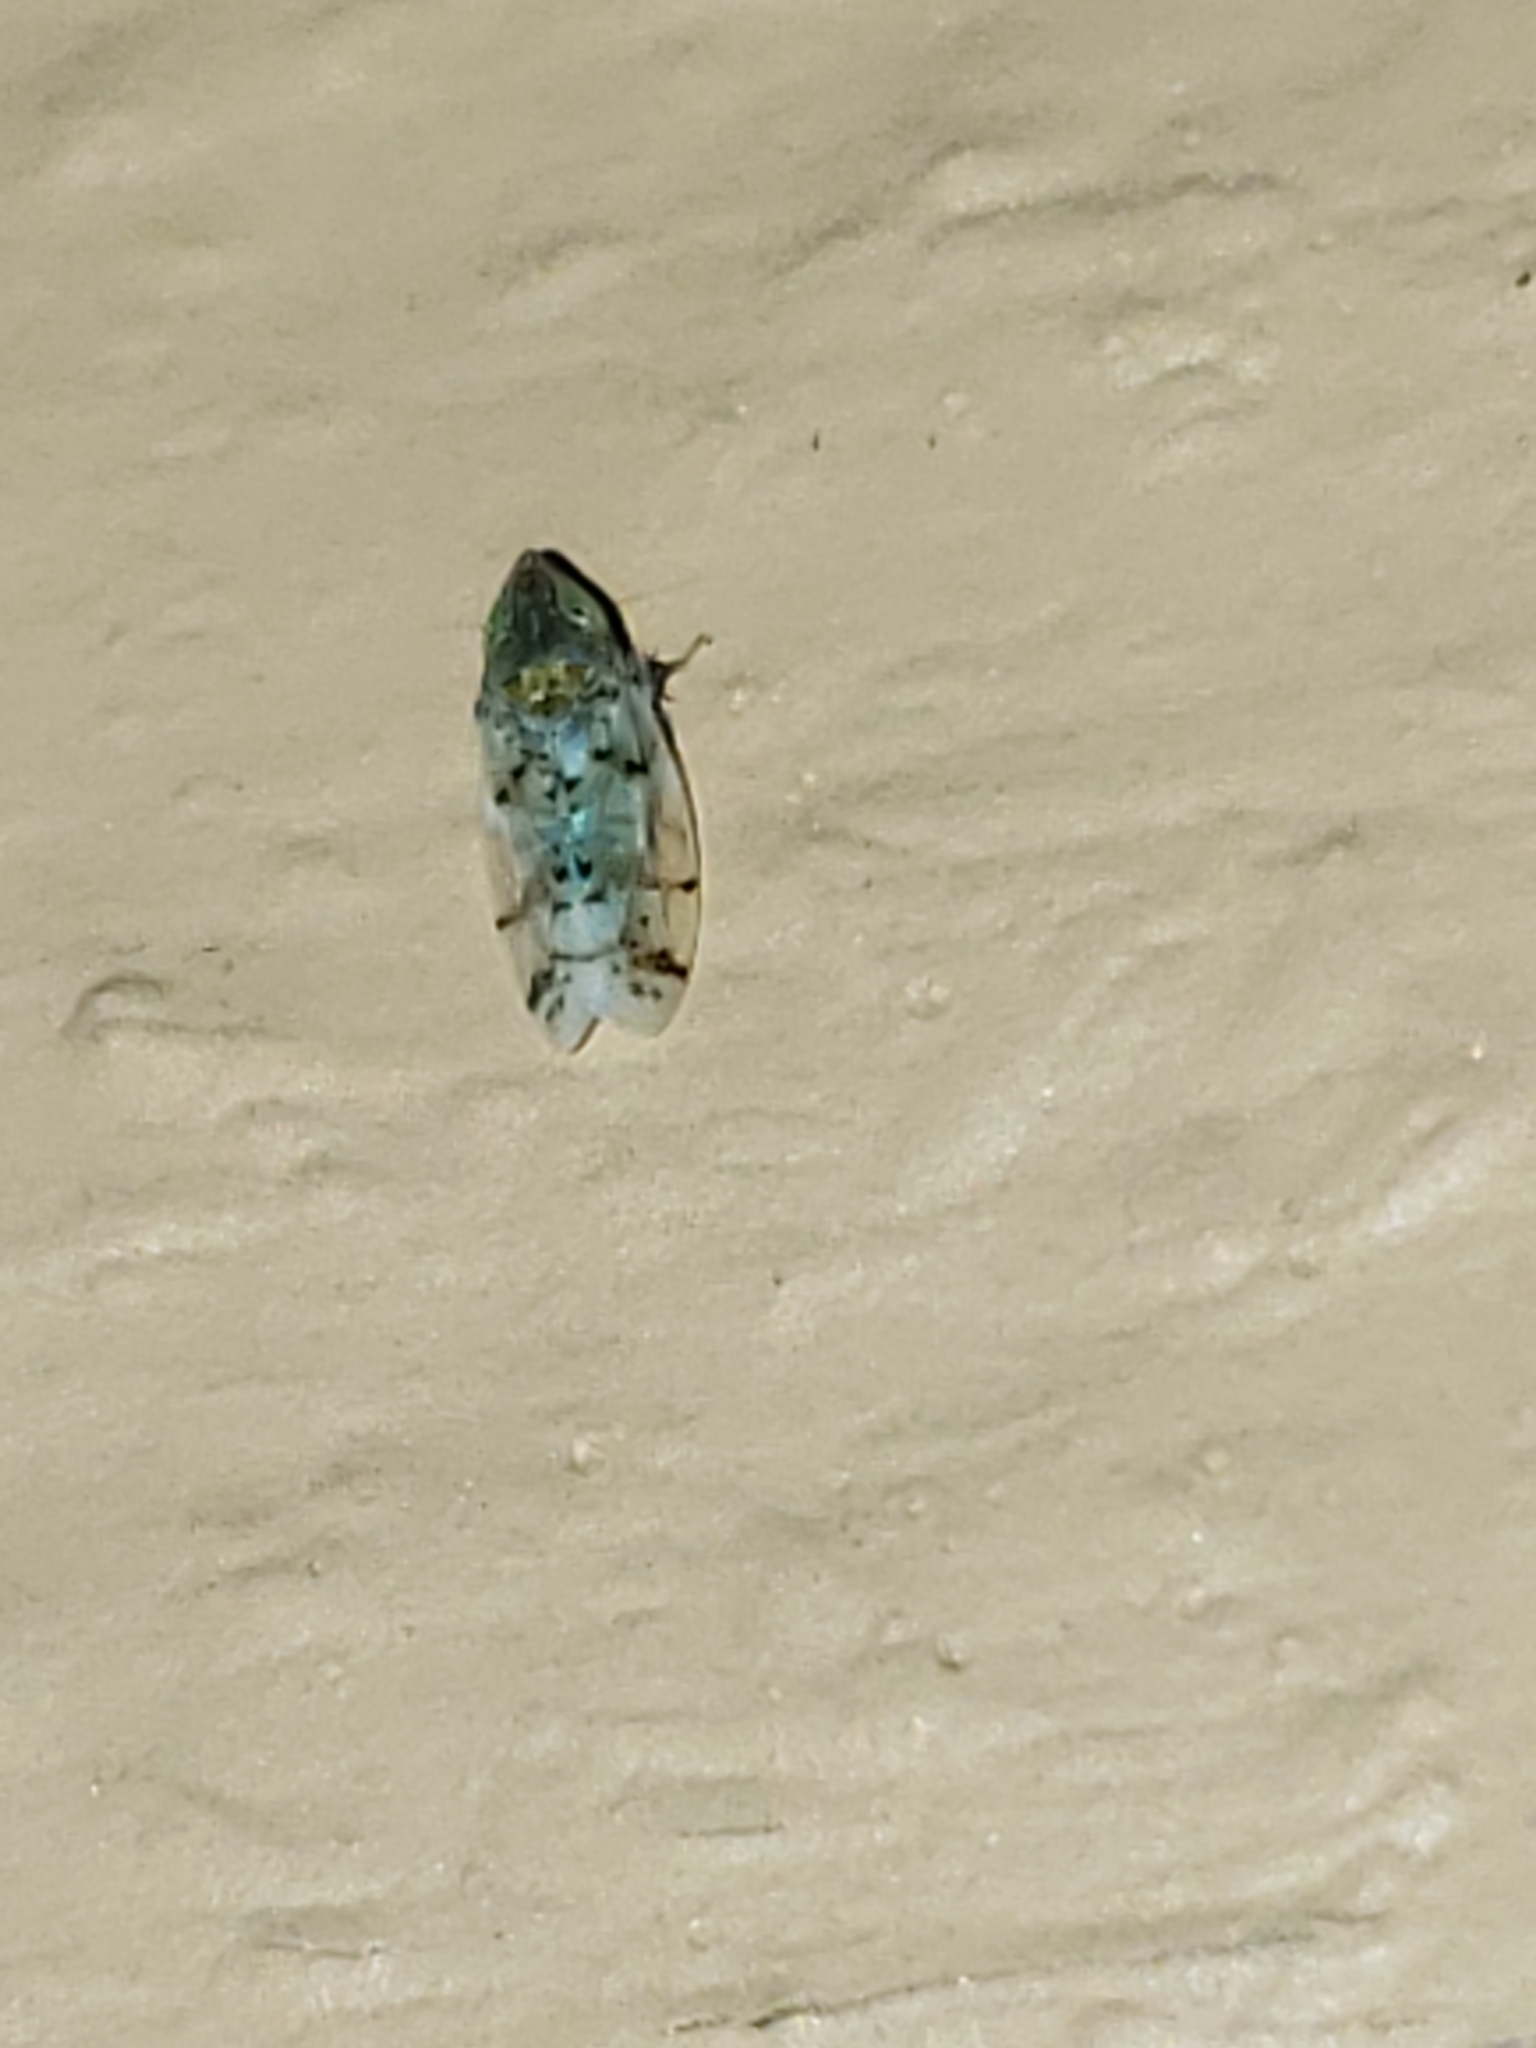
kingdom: Animalia
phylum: Arthropoda
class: Insecta
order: Hemiptera
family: Cicadellidae
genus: Japananus
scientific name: Japananus hyalinus
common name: The japanese maple leafhopper
